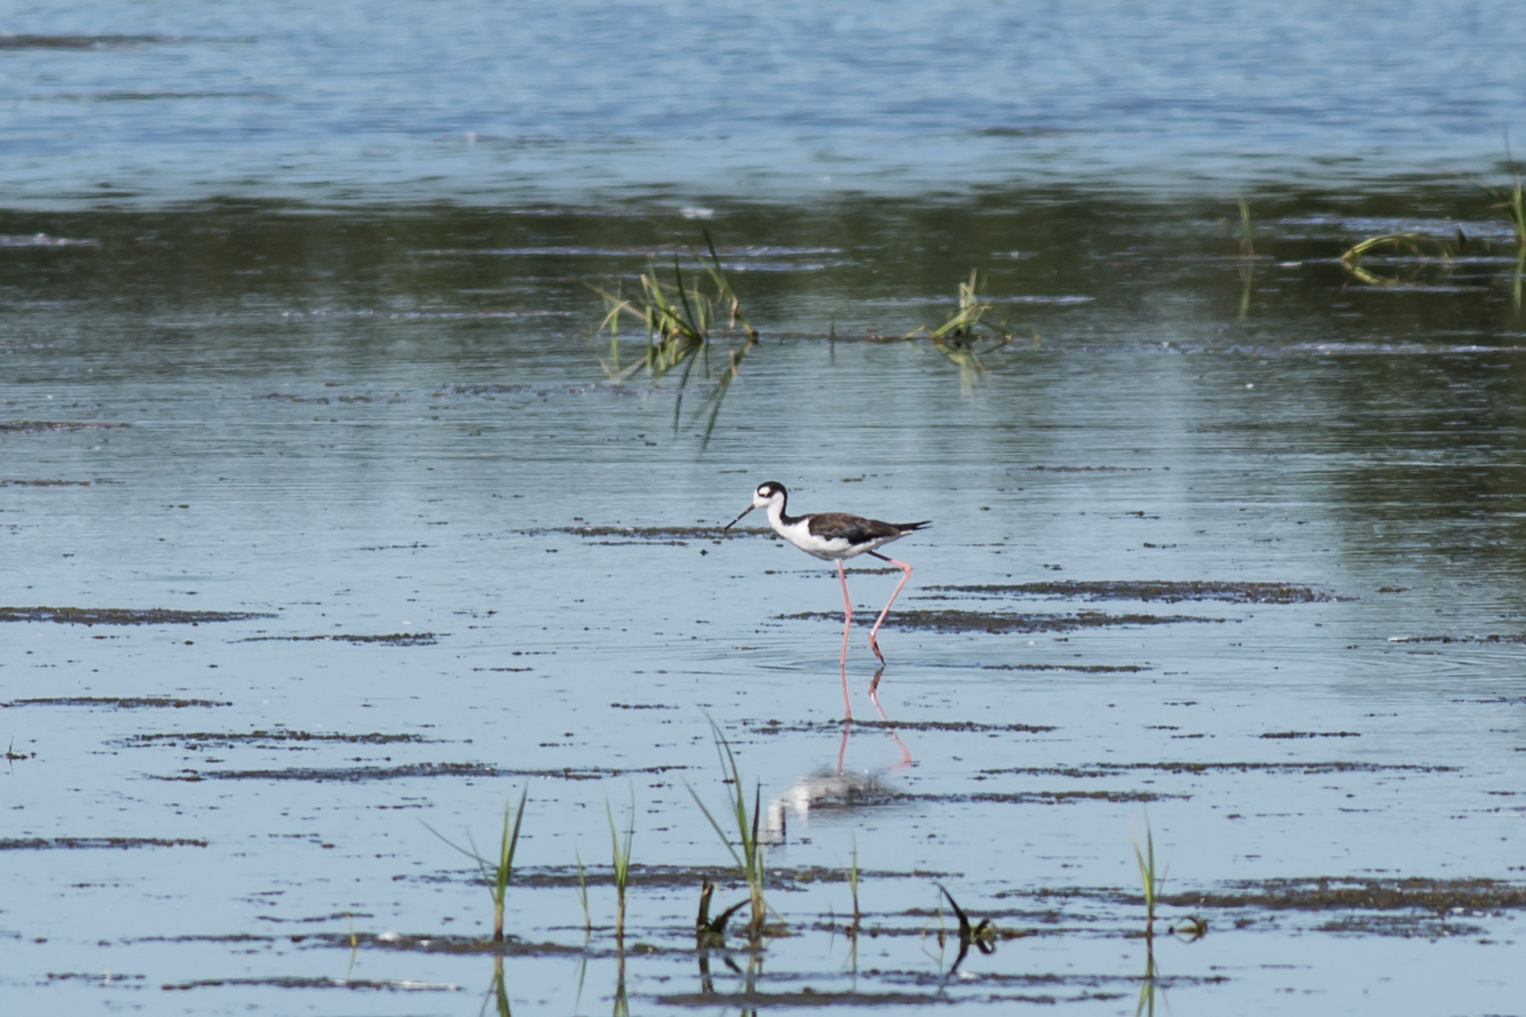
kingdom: Animalia
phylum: Chordata
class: Aves
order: Charadriiformes
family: Recurvirostridae
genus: Himantopus
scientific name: Himantopus mexicanus
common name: Black-necked stilt
